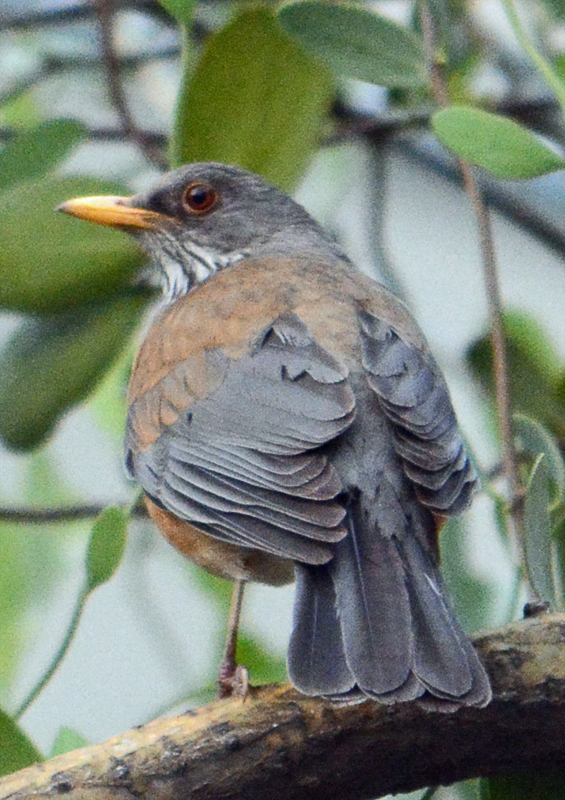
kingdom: Animalia
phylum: Chordata
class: Aves
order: Passeriformes
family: Turdidae
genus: Turdus
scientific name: Turdus rufopalliatus
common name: Rufous-backed robin
